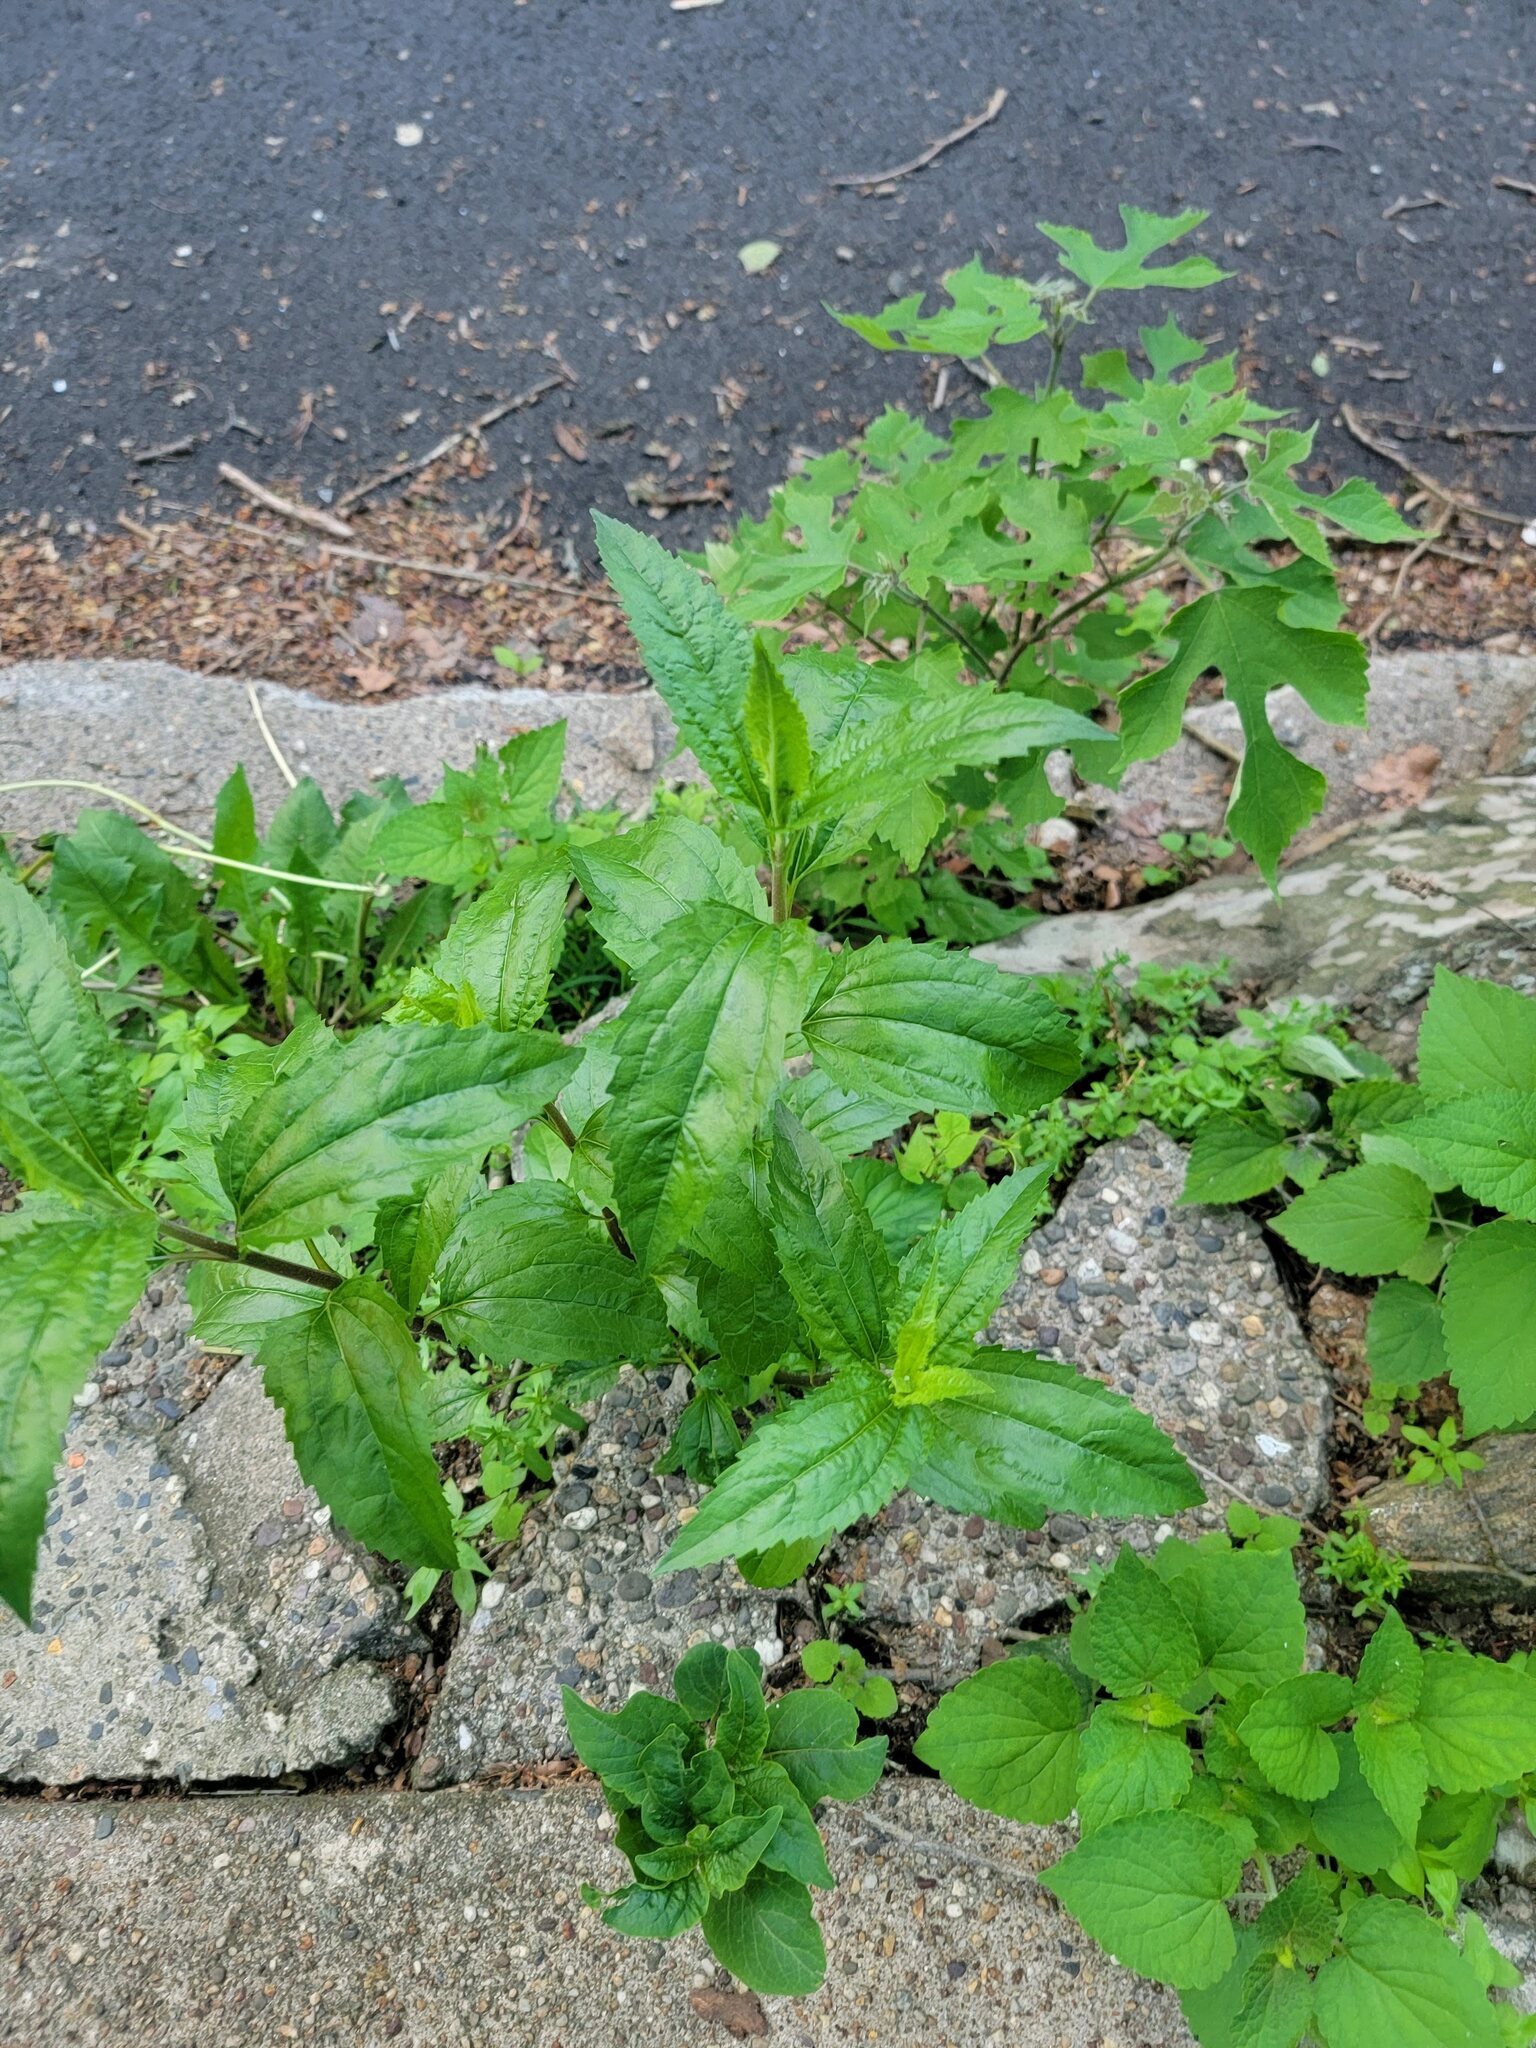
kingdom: Plantae
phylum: Tracheophyta
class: Magnoliopsida
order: Asterales
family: Asteraceae
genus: Eupatorium
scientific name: Eupatorium serotinum
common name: Late boneset
